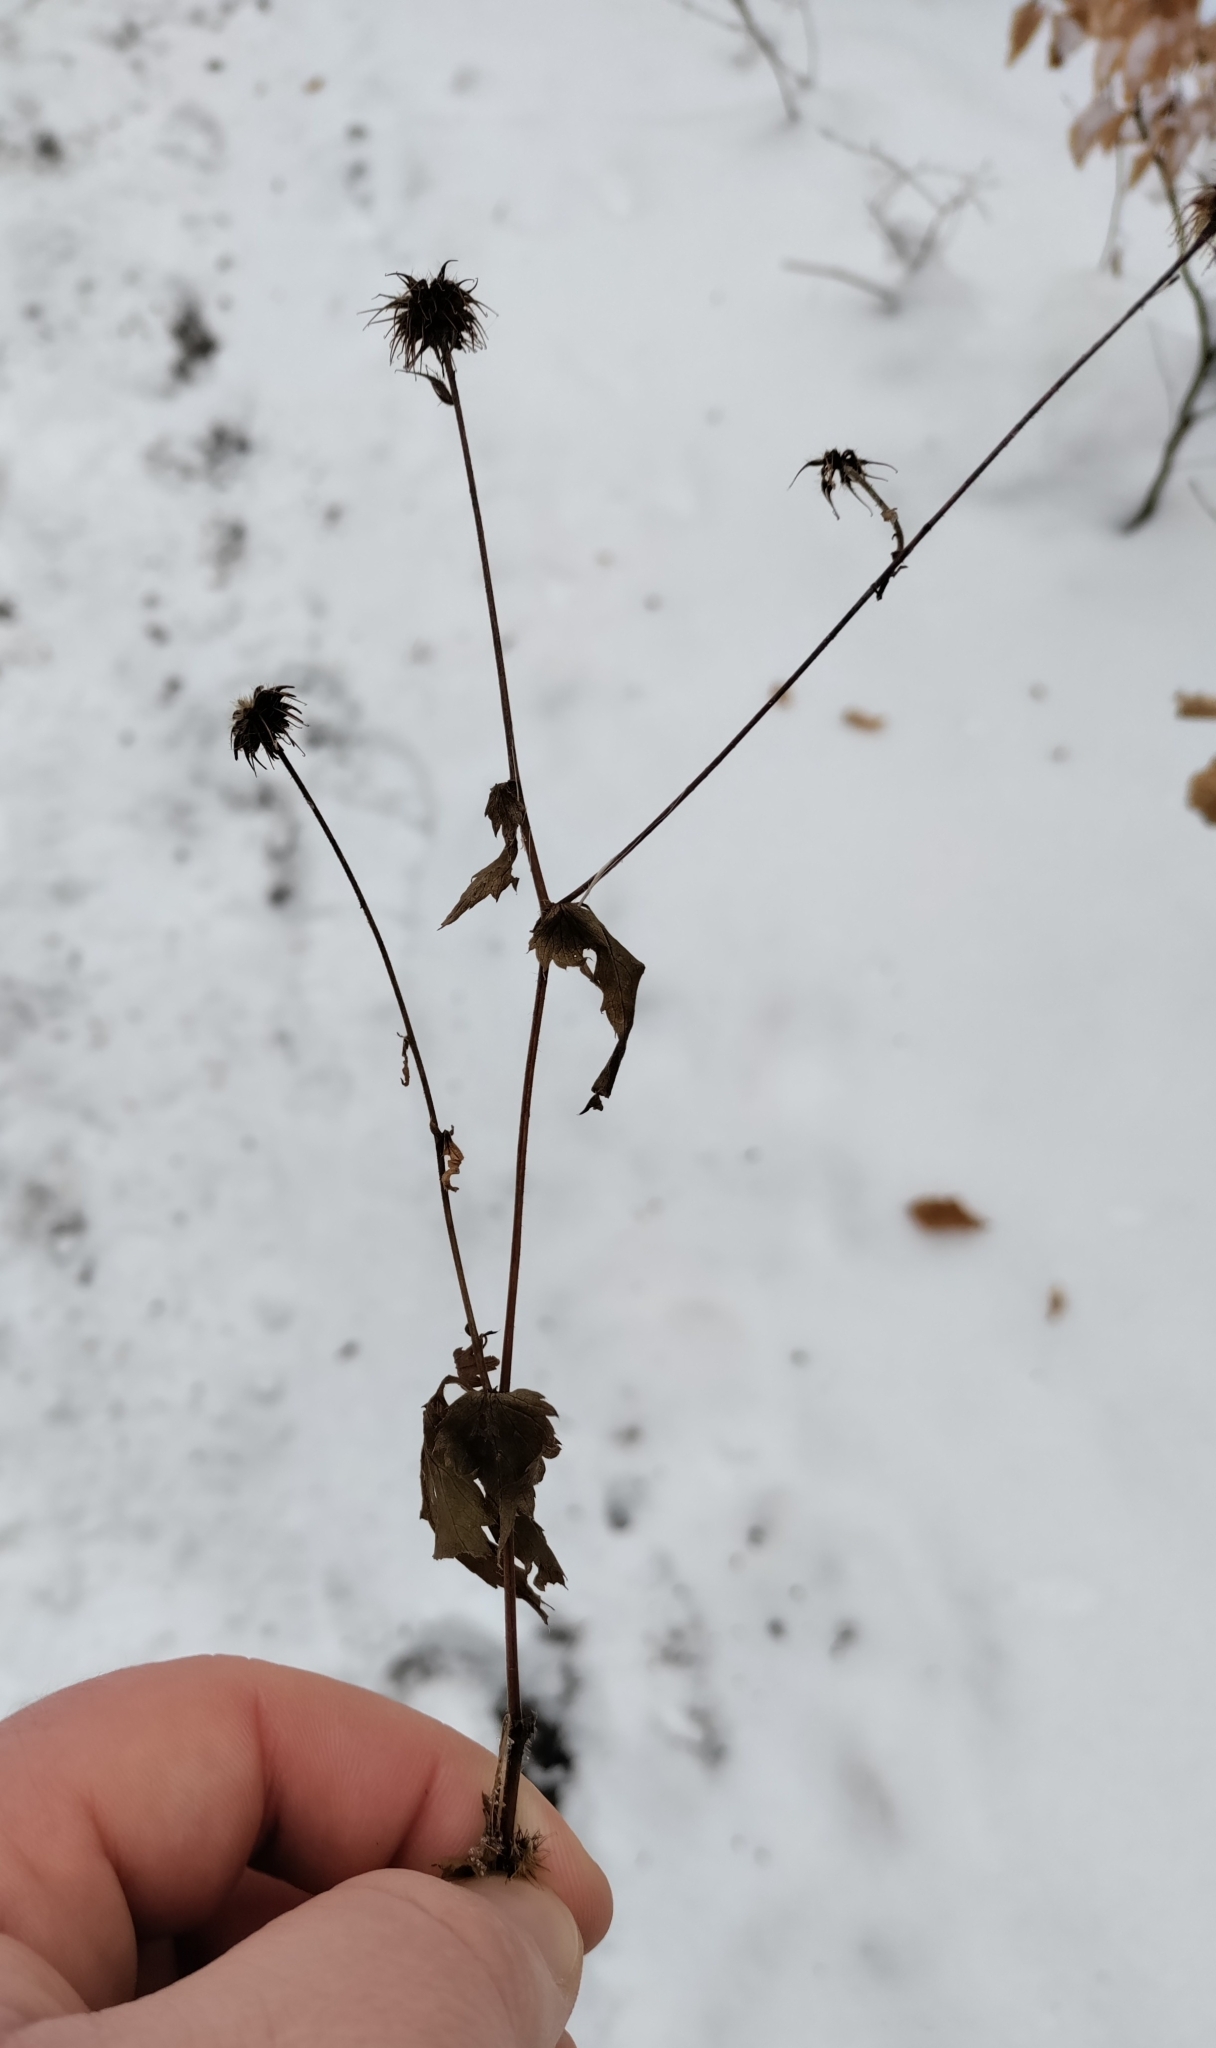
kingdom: Plantae
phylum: Tracheophyta
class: Magnoliopsida
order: Rosales
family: Rosaceae
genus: Geum
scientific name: Geum urbanum
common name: Wood avens
